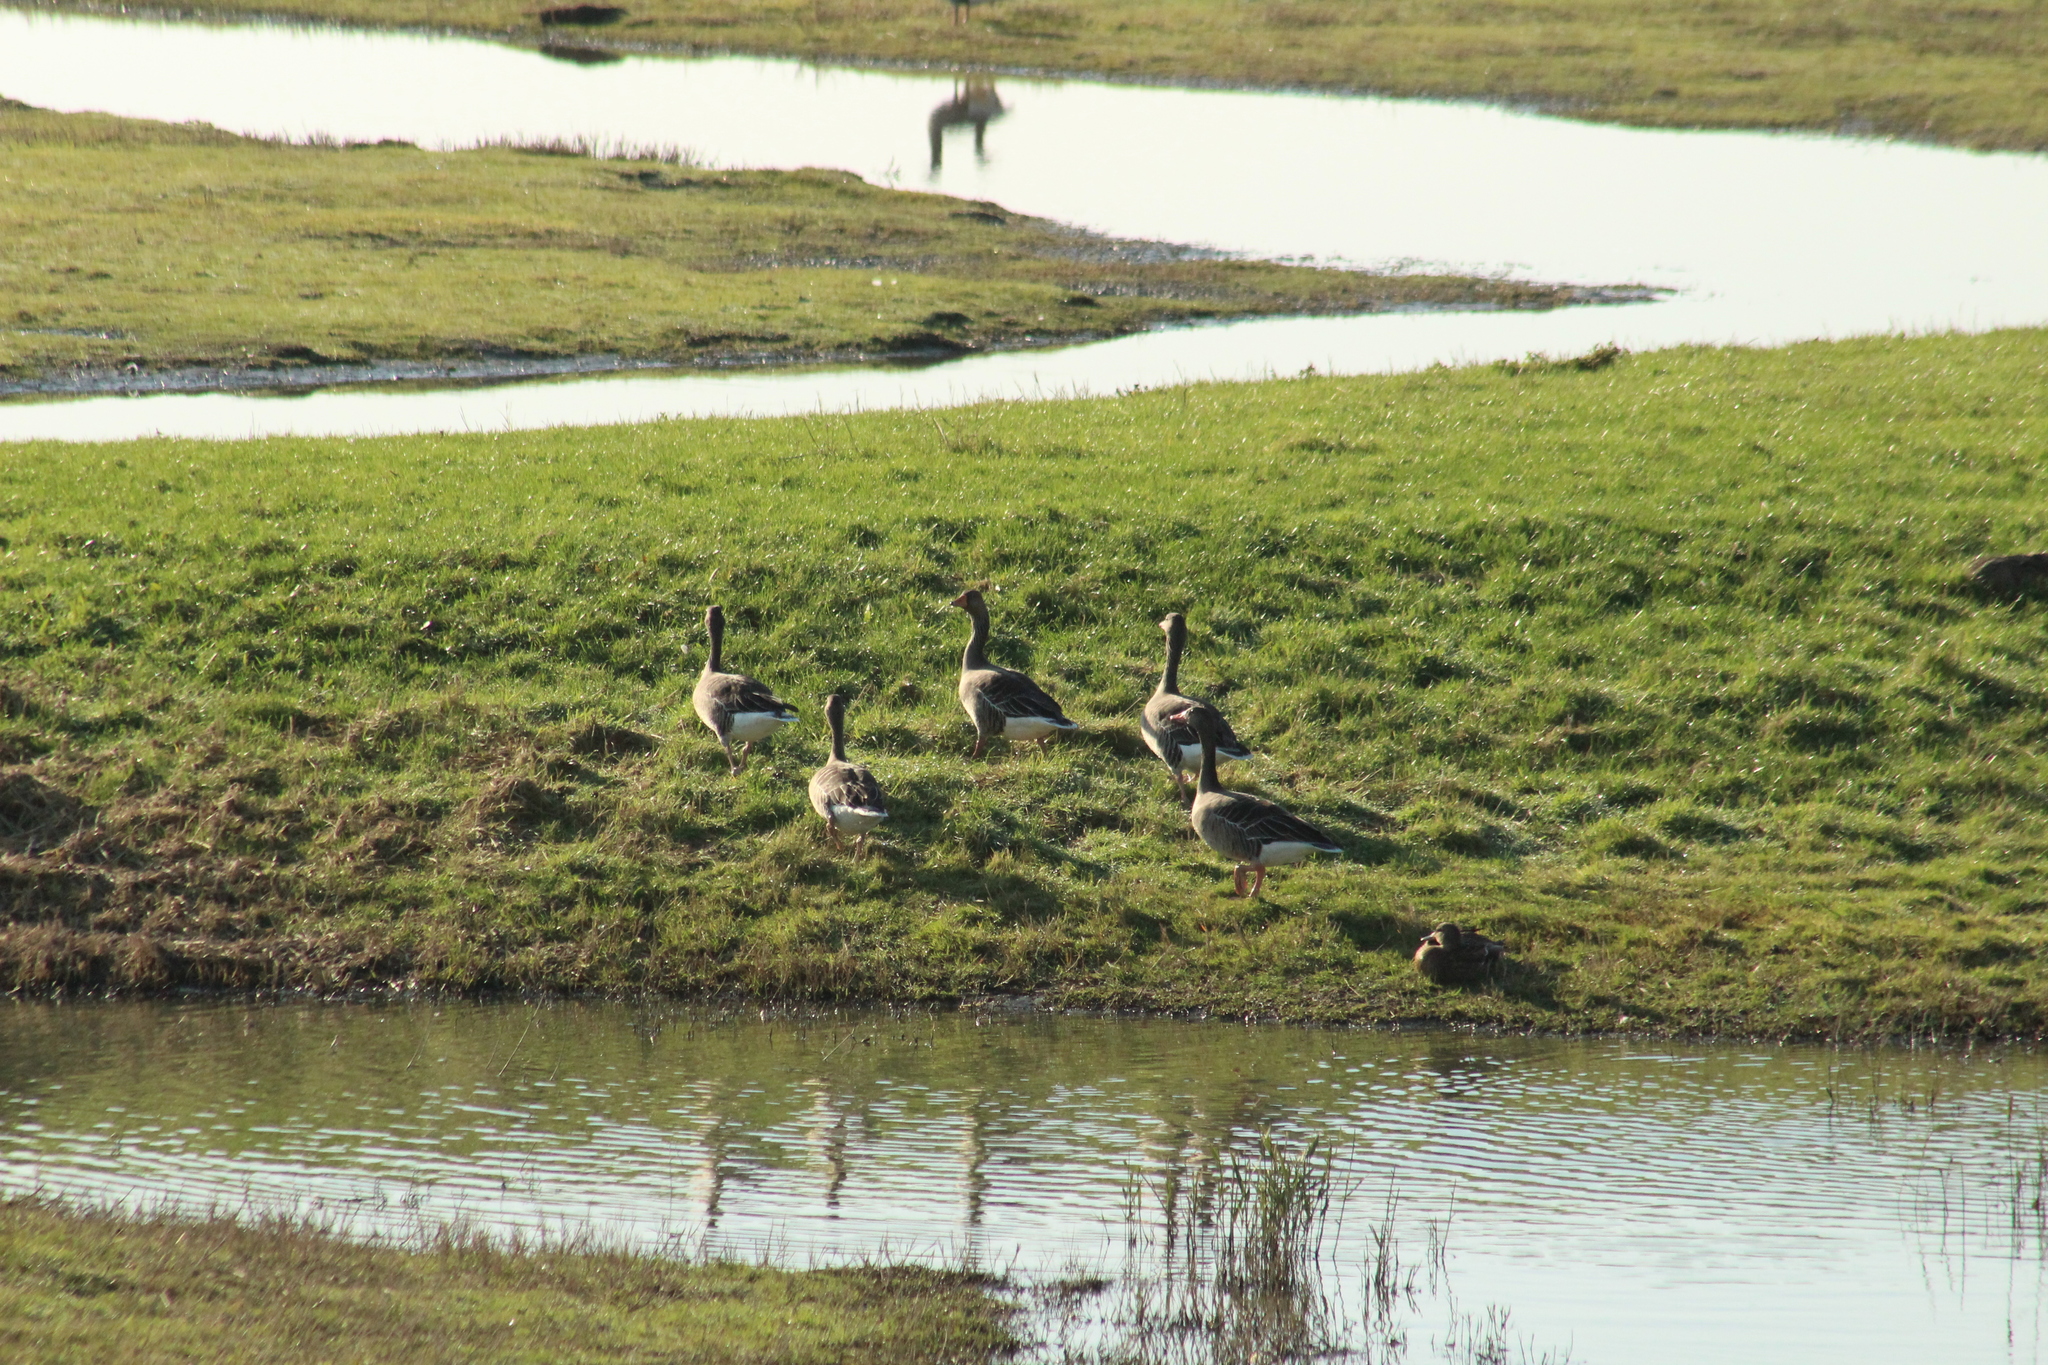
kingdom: Animalia
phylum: Chordata
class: Aves
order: Anseriformes
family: Anatidae
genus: Anser
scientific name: Anser anser
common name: Greylag goose
